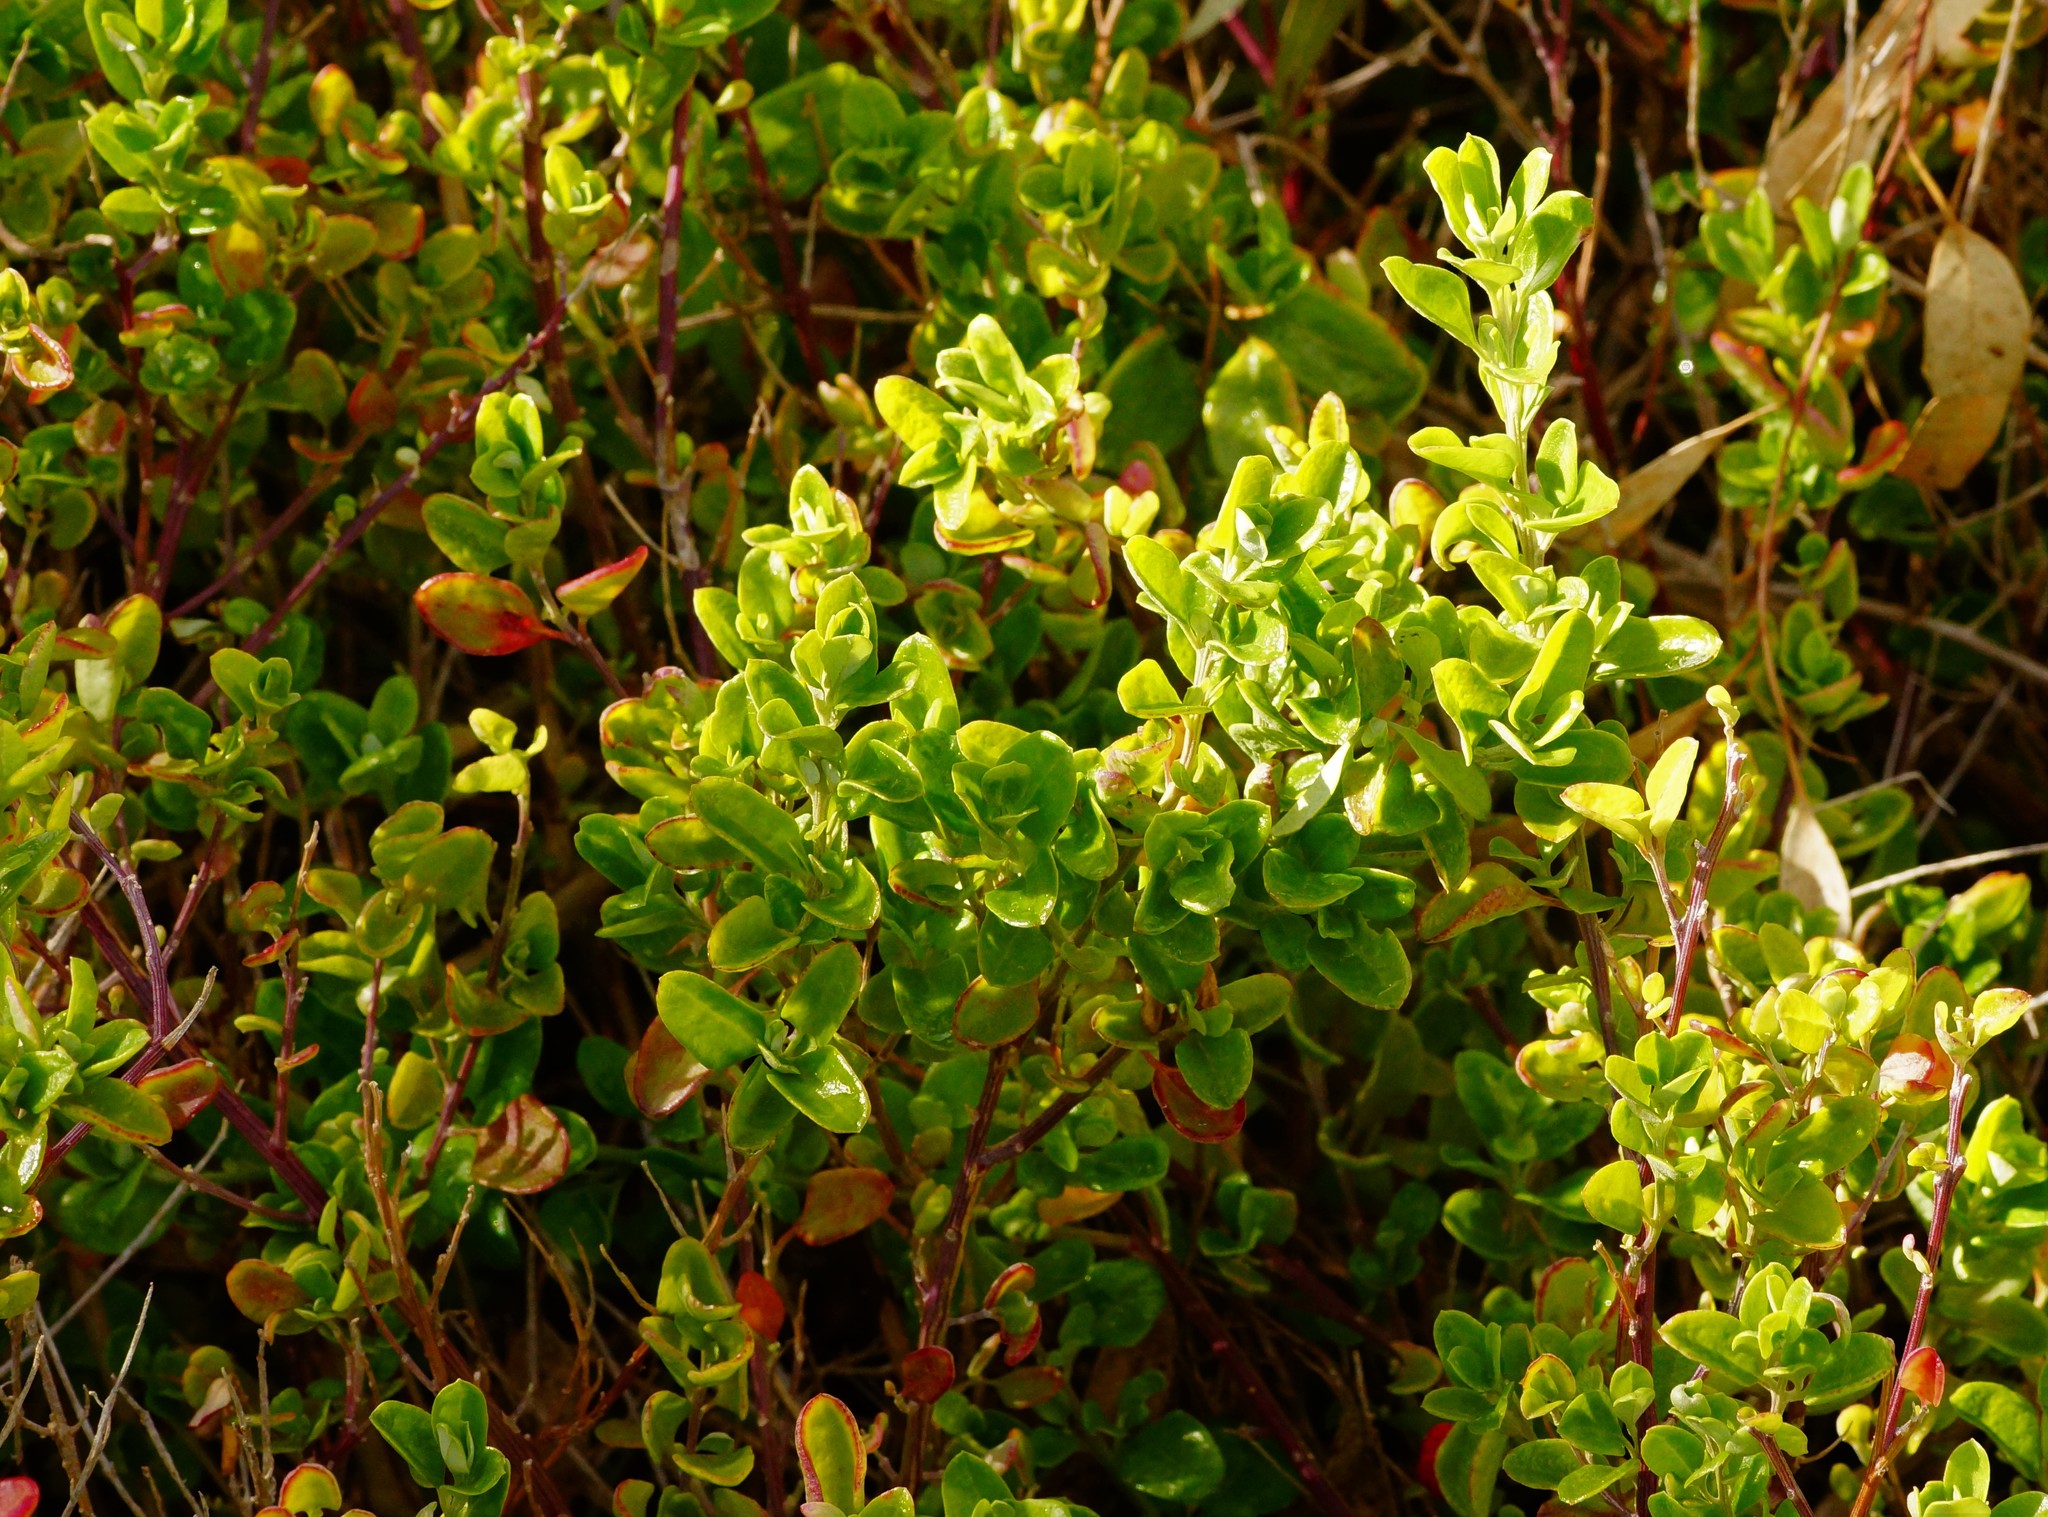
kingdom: Plantae
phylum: Tracheophyta
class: Magnoliopsida
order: Caryophyllales
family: Amaranthaceae
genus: Chenopodium
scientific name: Chenopodium candolleanum
